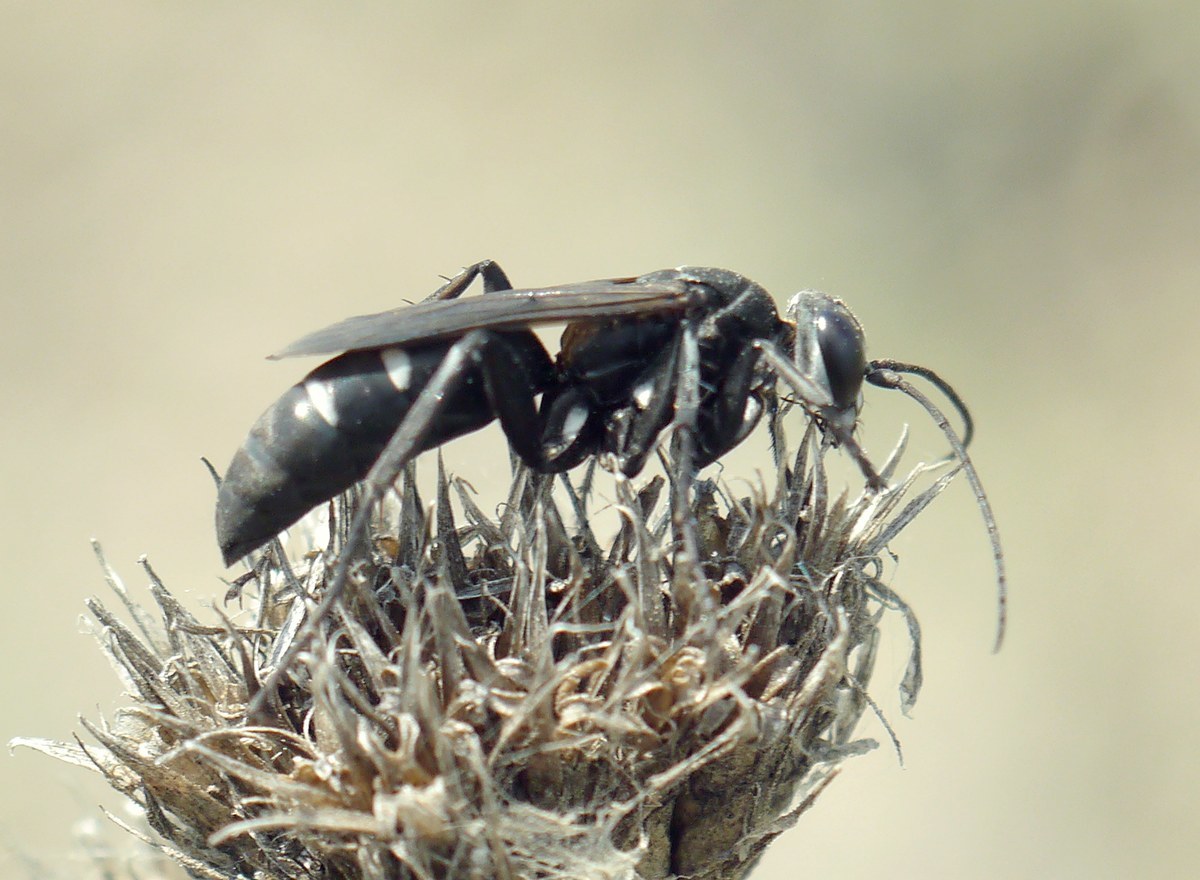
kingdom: Animalia
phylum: Arthropoda
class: Insecta
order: Hymenoptera
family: Pompilidae
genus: Dicyrtomellus
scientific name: Dicyrtomellus tingitanus
